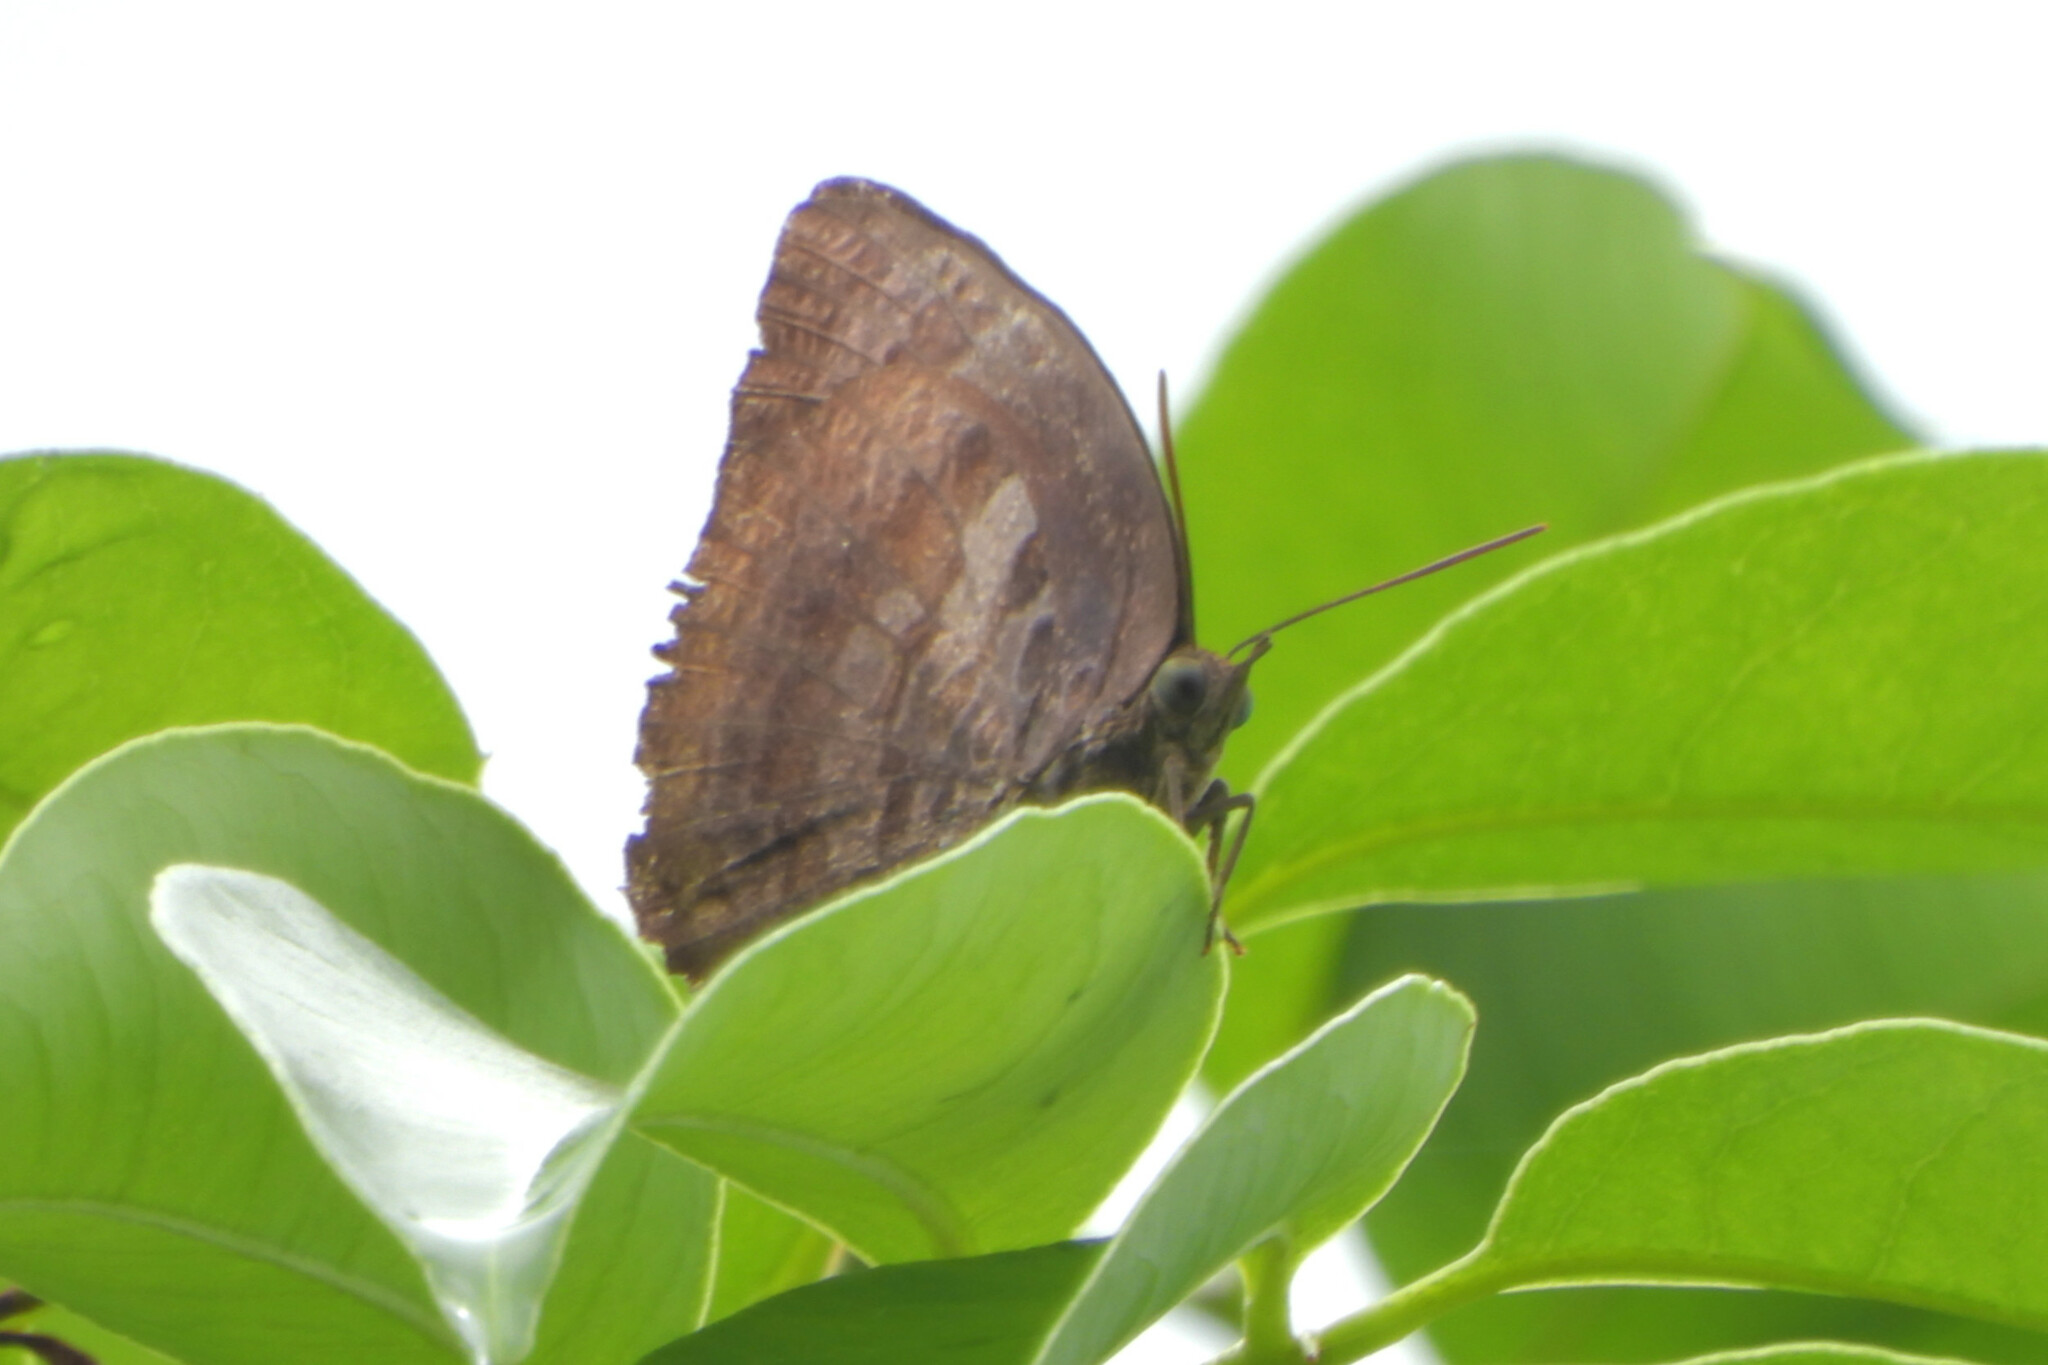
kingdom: Animalia
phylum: Arthropoda
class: Insecta
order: Lepidoptera
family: Lycaenidae
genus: Arhopala
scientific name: Arhopala centaurus
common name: Dull oak-blue
